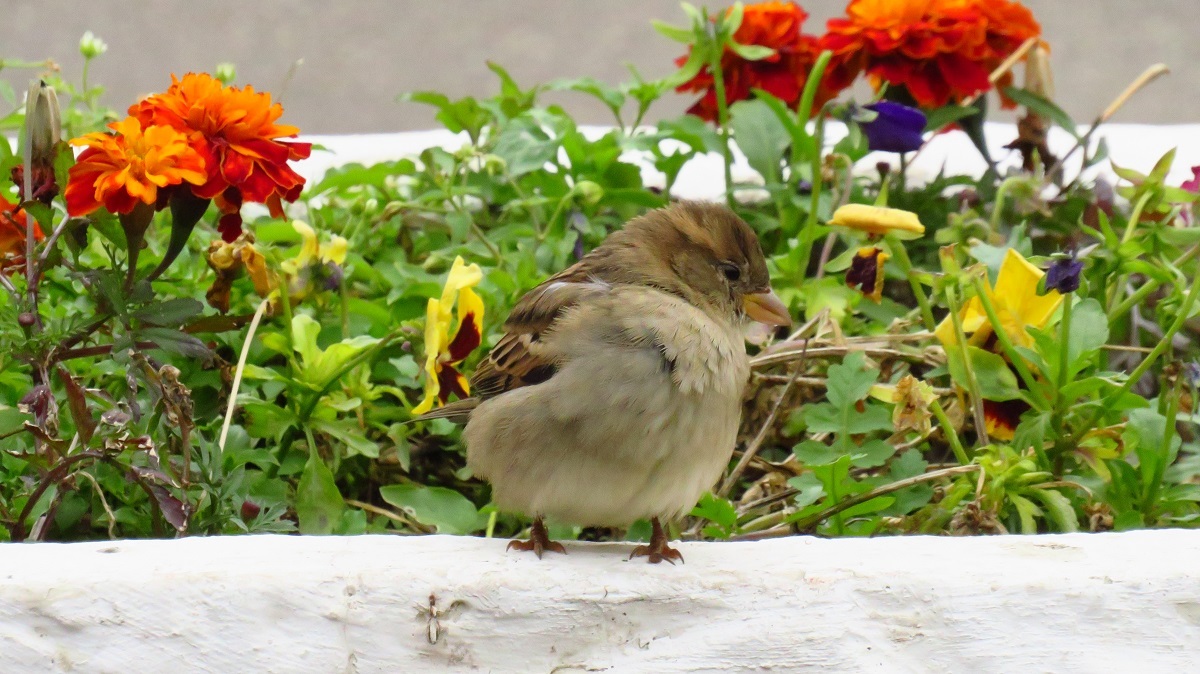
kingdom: Animalia
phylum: Chordata
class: Aves
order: Passeriformes
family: Passeridae
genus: Passer
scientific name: Passer domesticus
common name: House sparrow
